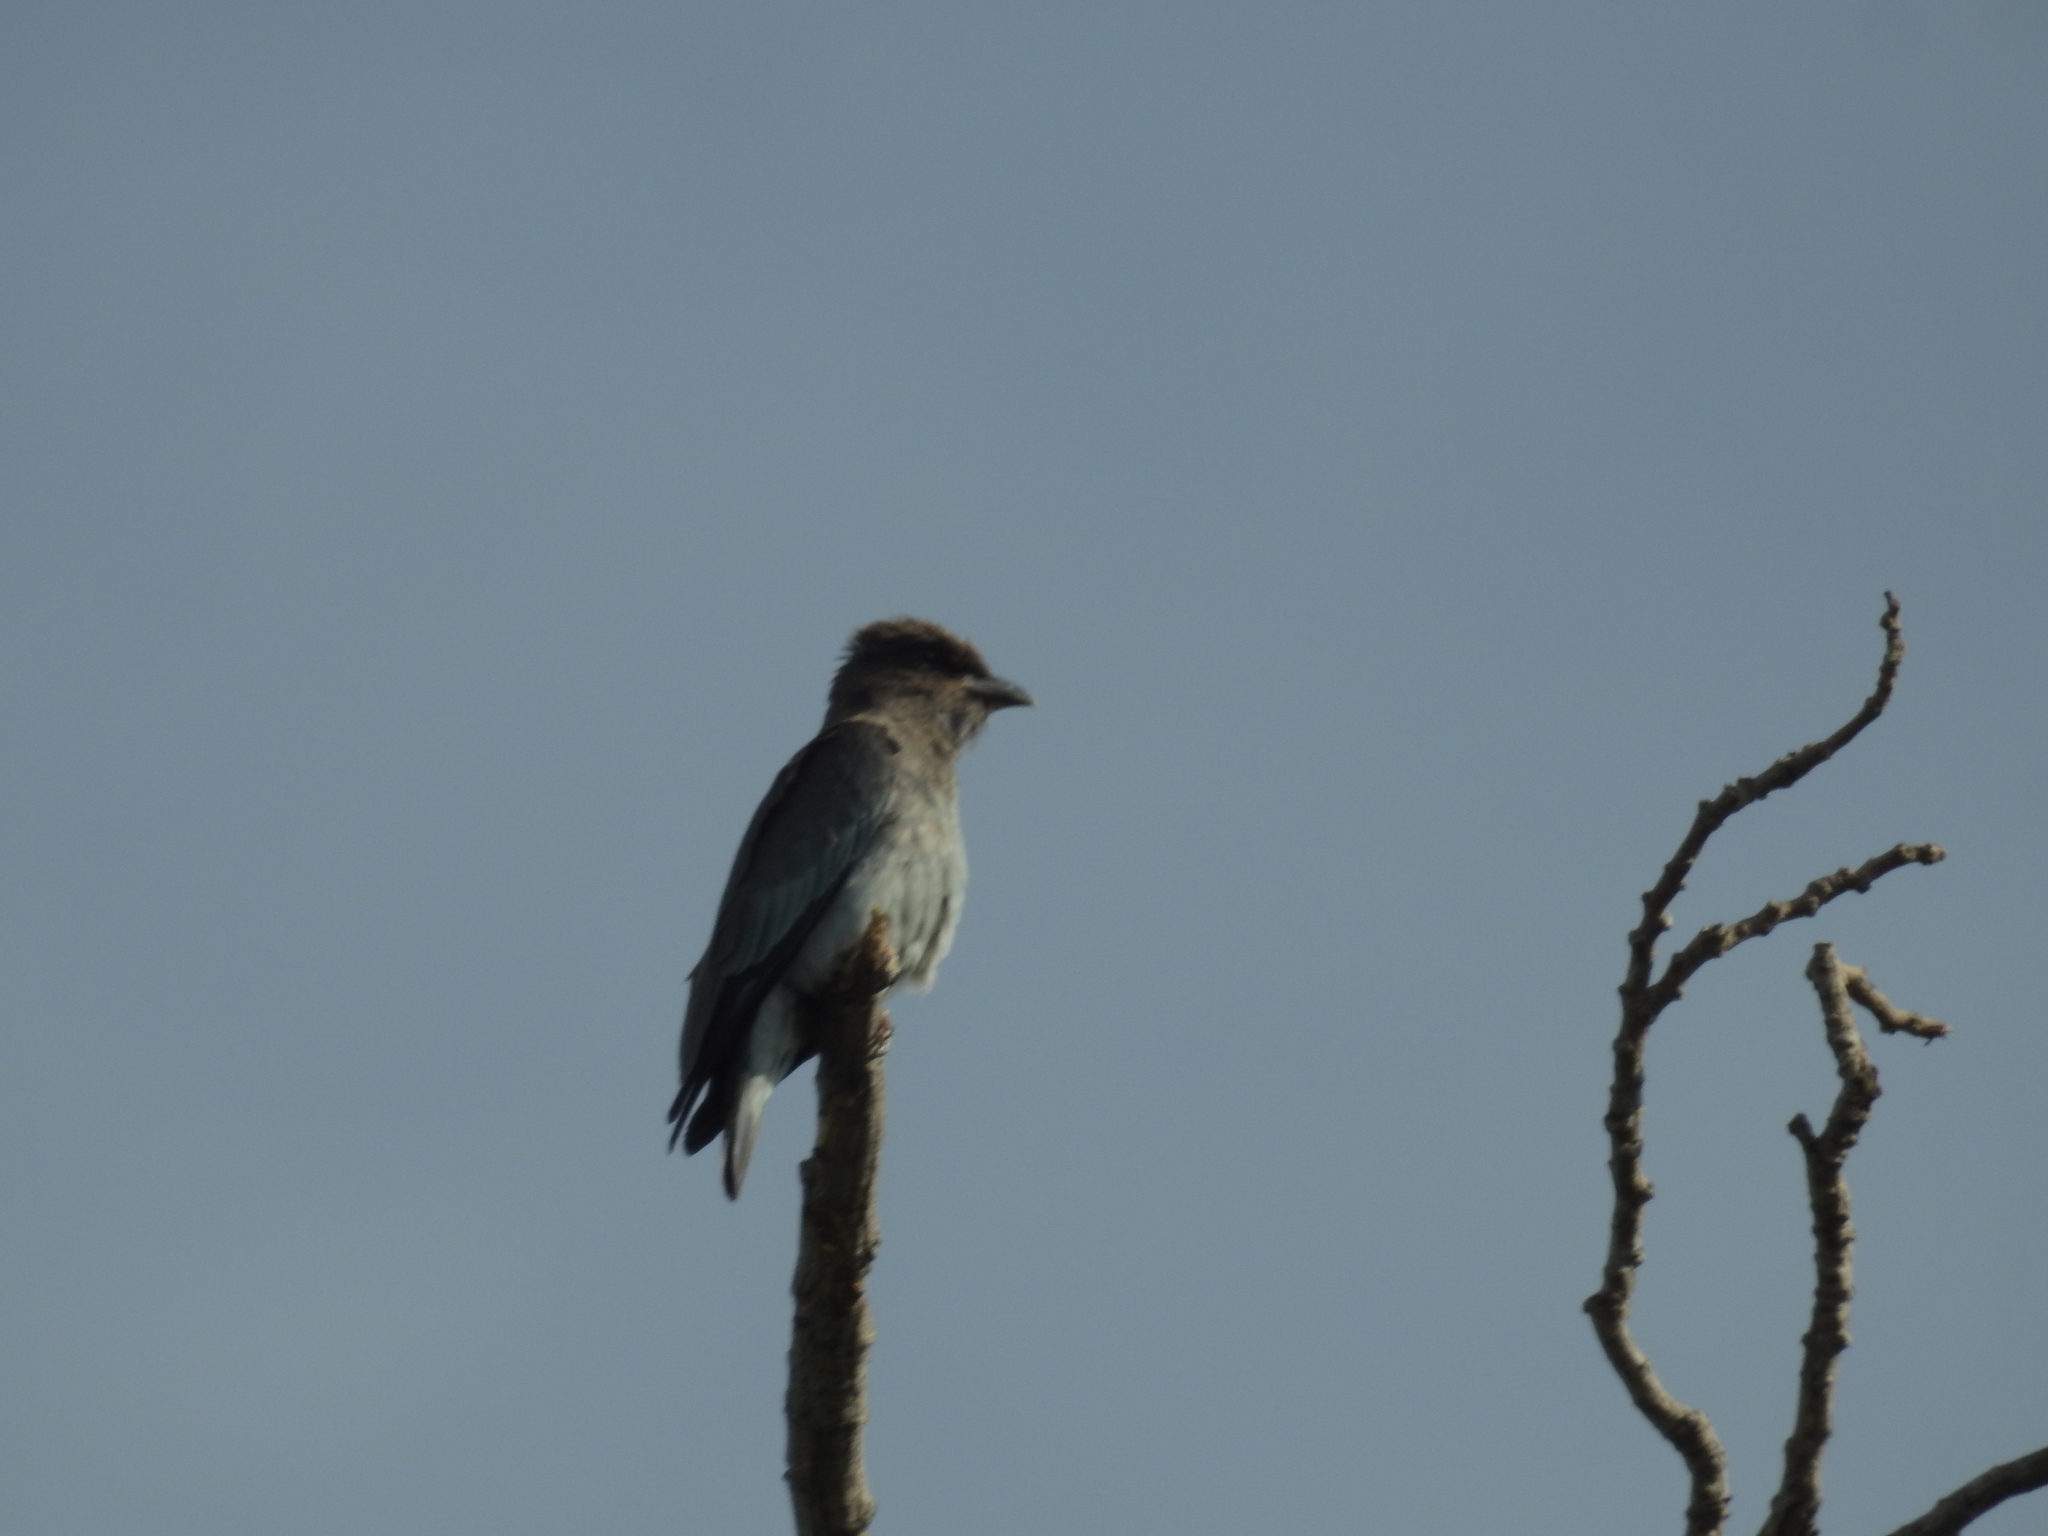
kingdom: Animalia
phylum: Chordata
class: Aves
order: Coraciiformes
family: Coraciidae
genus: Eurystomus
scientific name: Eurystomus orientalis
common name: Oriental dollarbird
